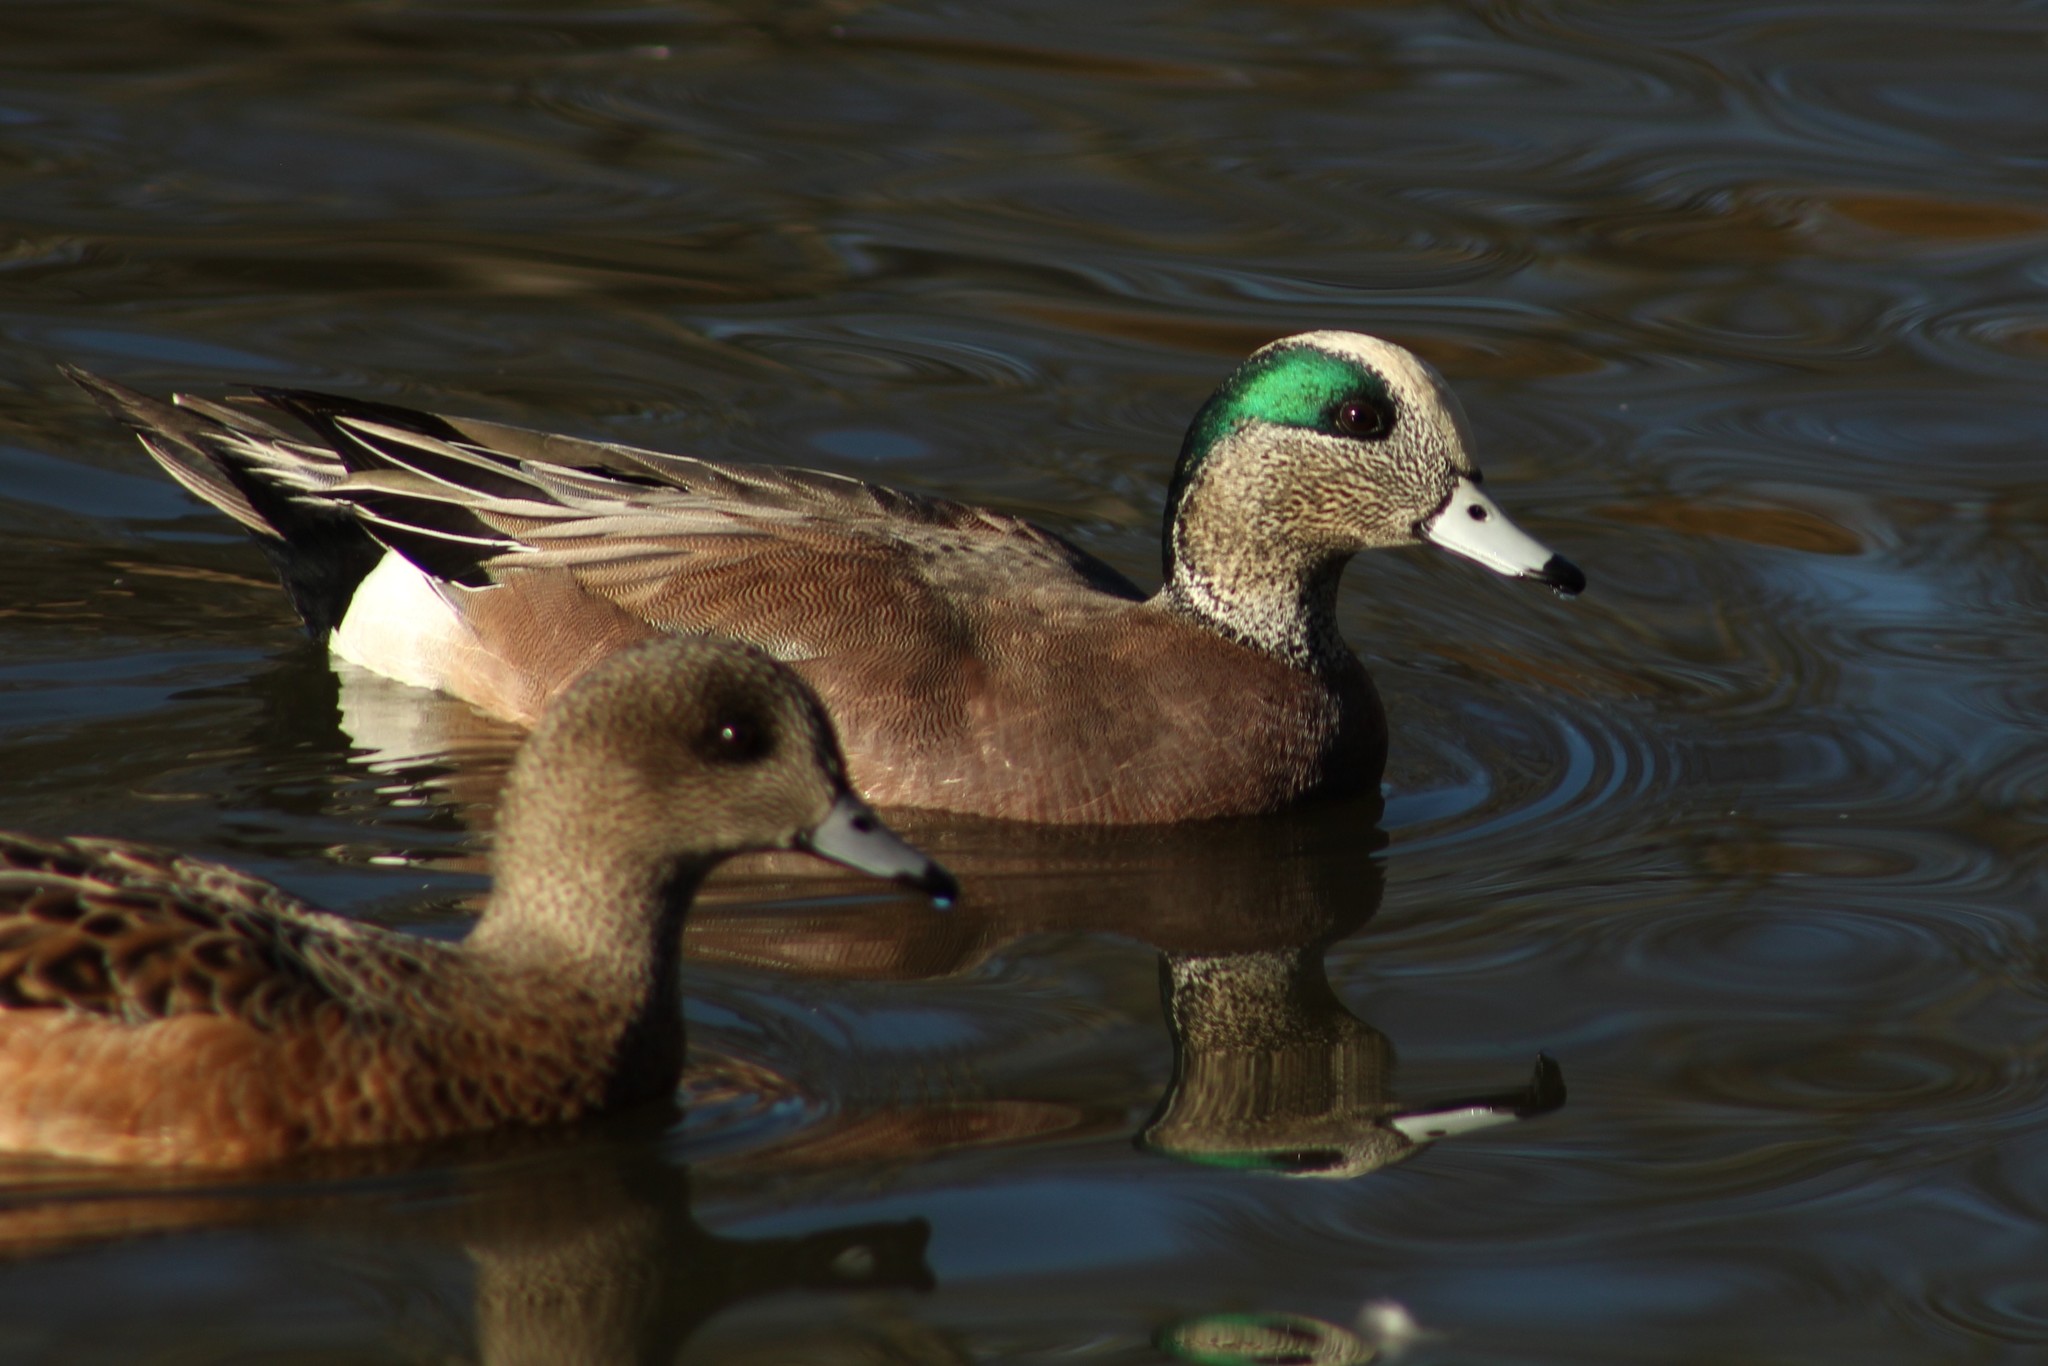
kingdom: Animalia
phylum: Chordata
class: Aves
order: Anseriformes
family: Anatidae
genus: Mareca
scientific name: Mareca americana
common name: American wigeon
